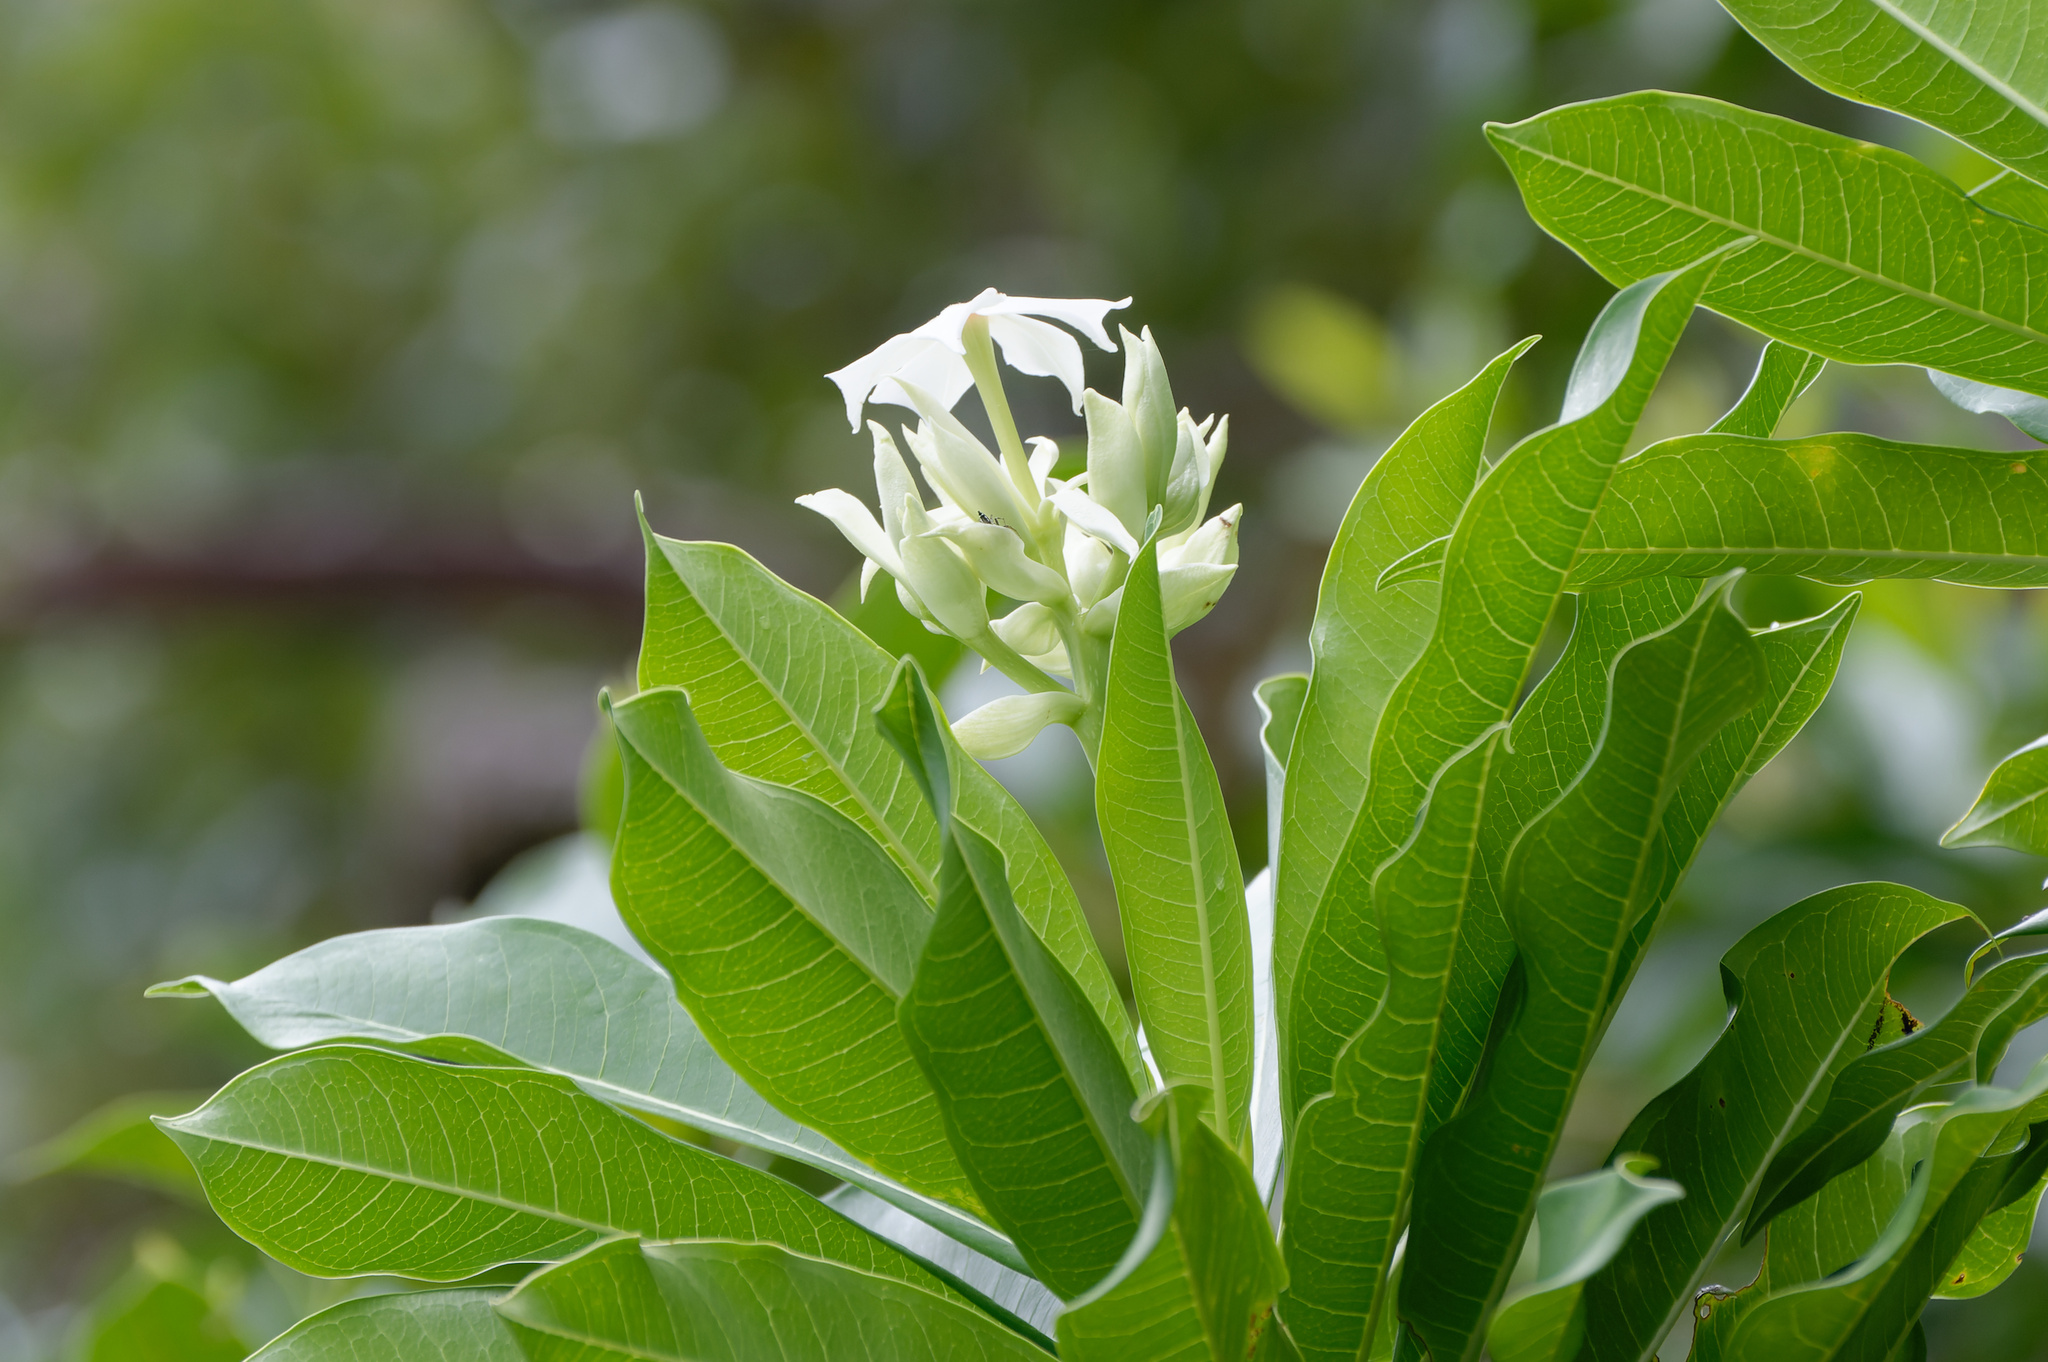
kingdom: Plantae
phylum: Tracheophyta
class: Magnoliopsida
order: Gentianales
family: Apocynaceae
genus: Cerbera
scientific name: Cerbera manghas
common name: Reva
